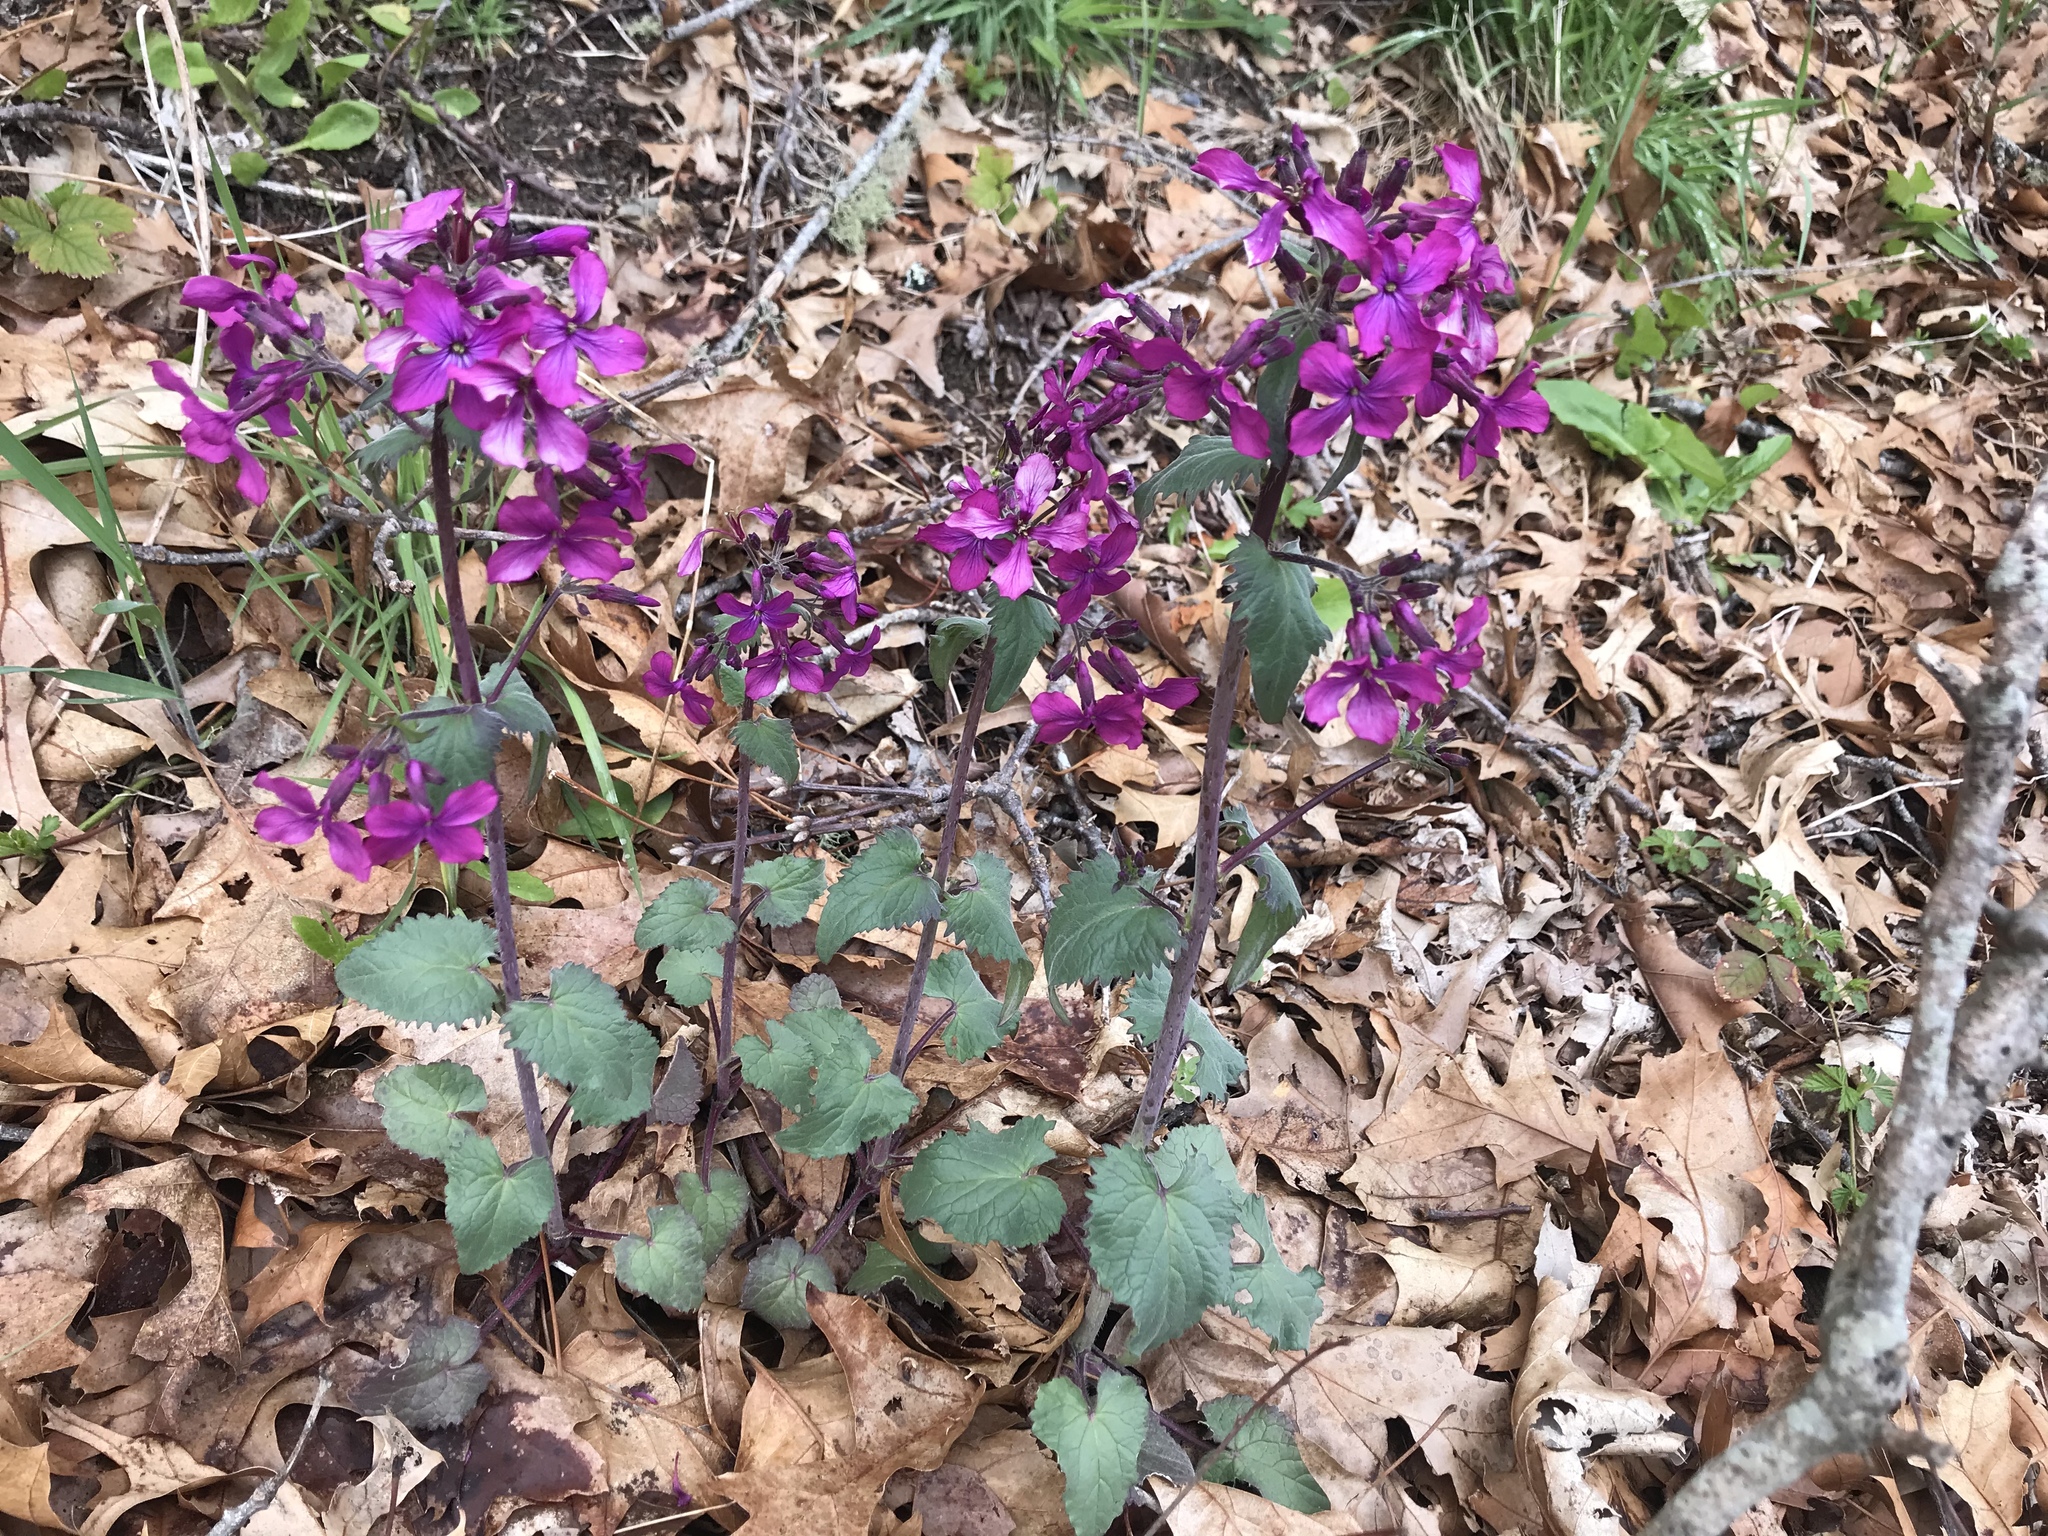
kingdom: Plantae
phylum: Tracheophyta
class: Magnoliopsida
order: Brassicales
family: Brassicaceae
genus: Lunaria
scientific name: Lunaria annua
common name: Honesty
